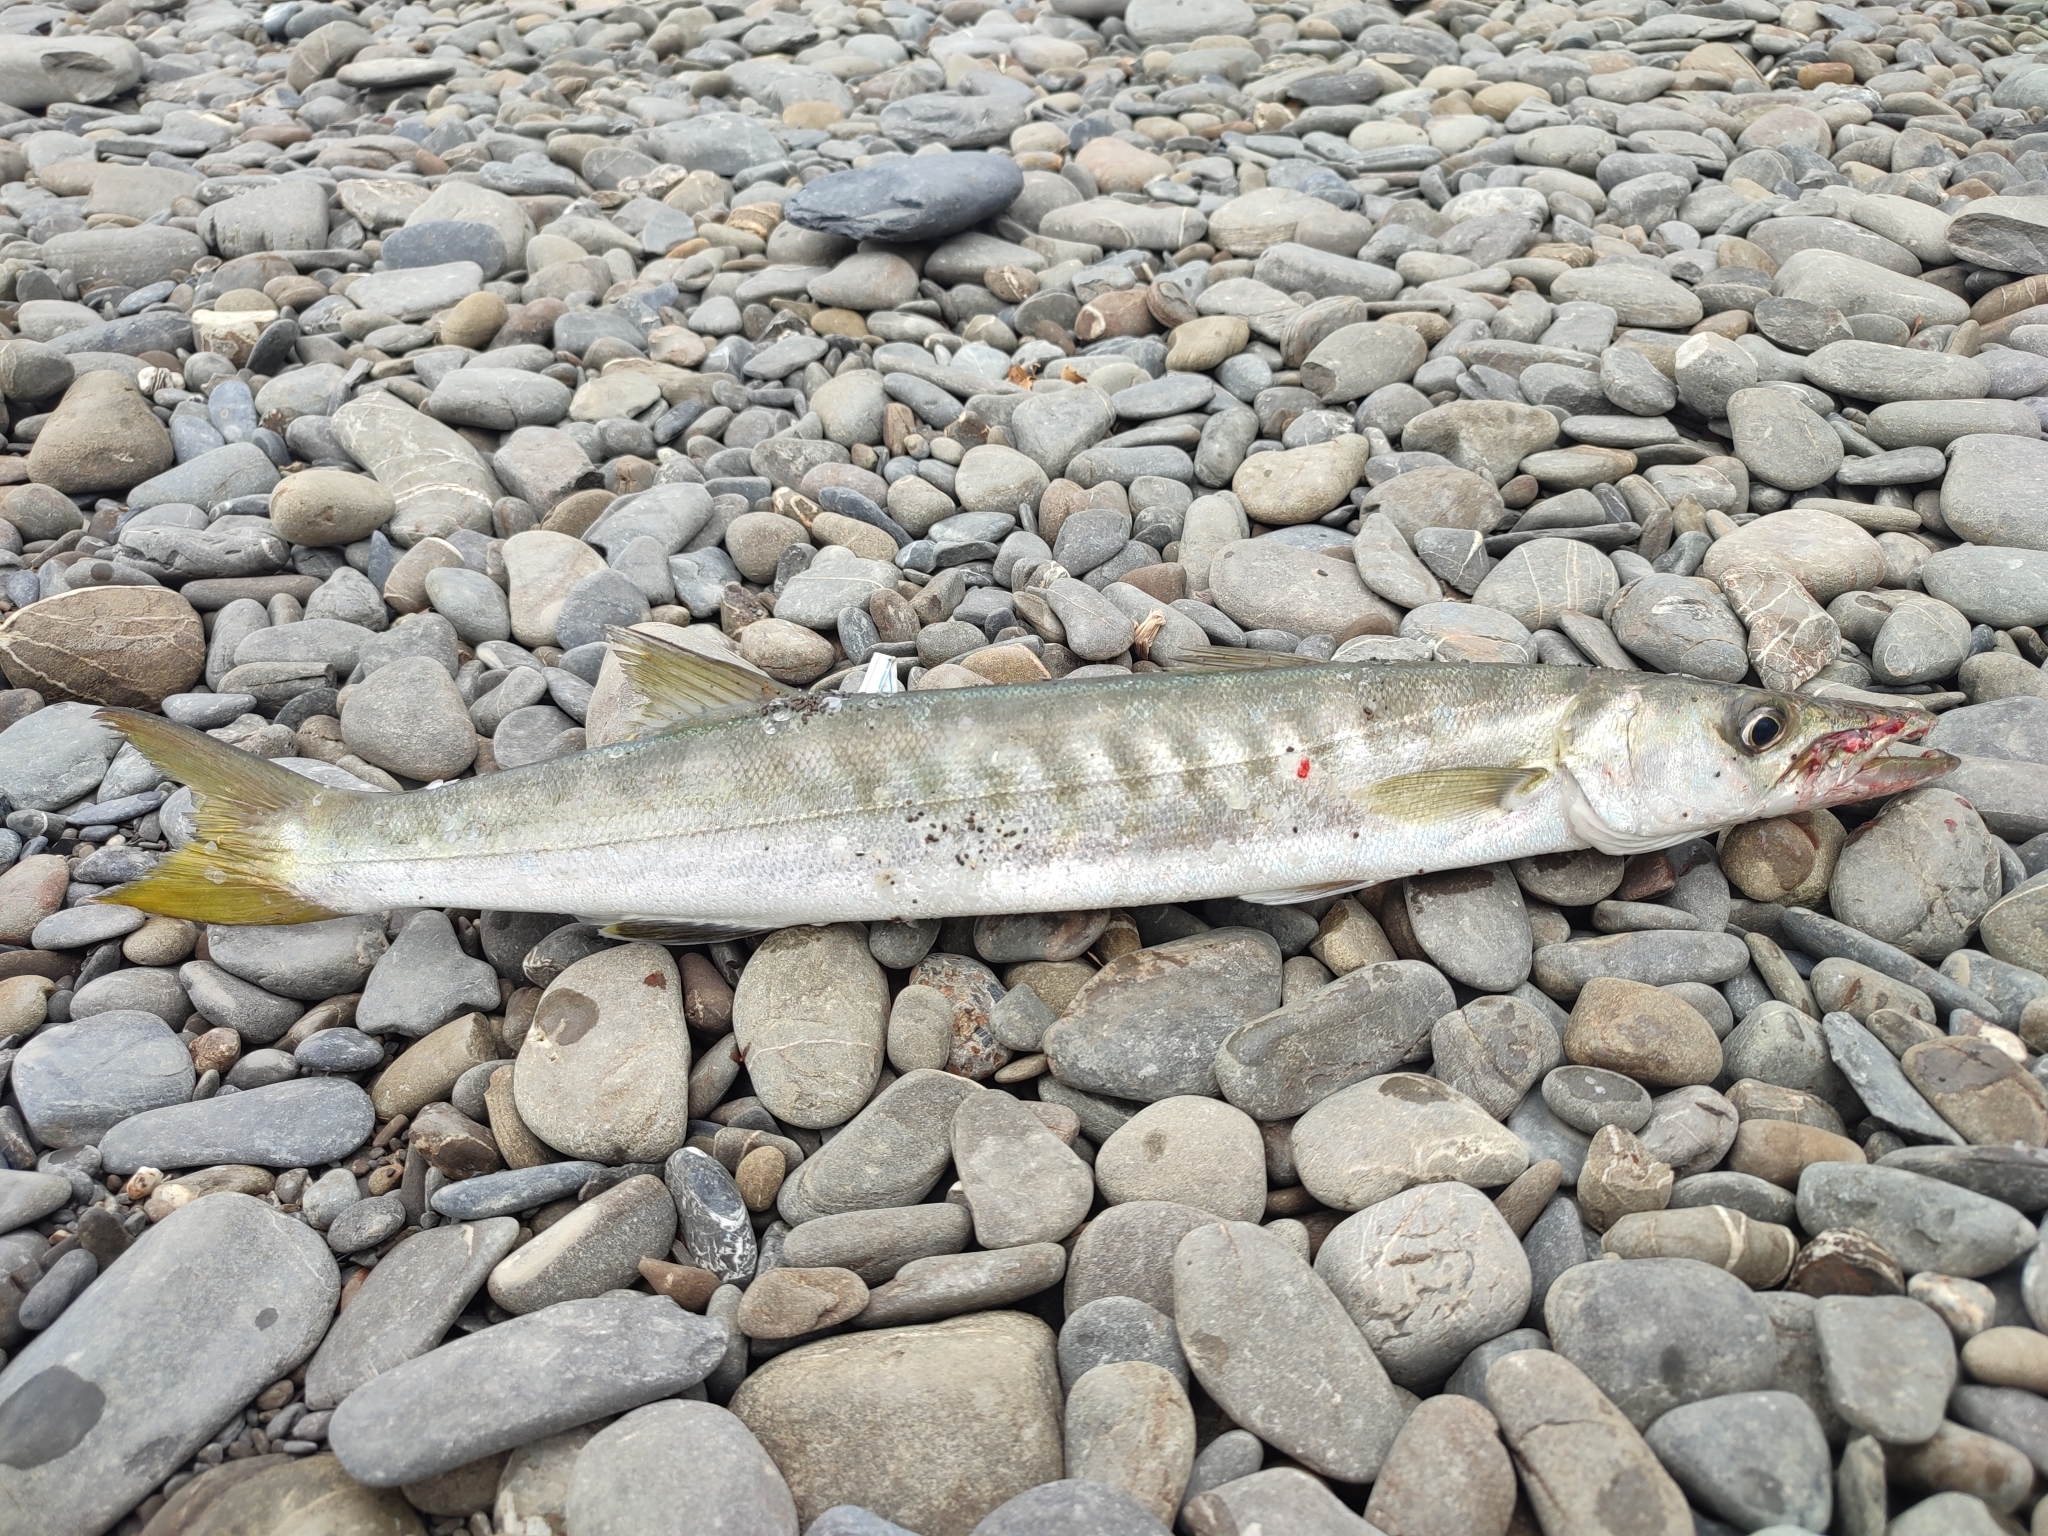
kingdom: Animalia
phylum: Chordata
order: Perciformes
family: Sphyraenidae
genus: Sphyraena
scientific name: Sphyraena jello
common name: Pickhandle barracuda
